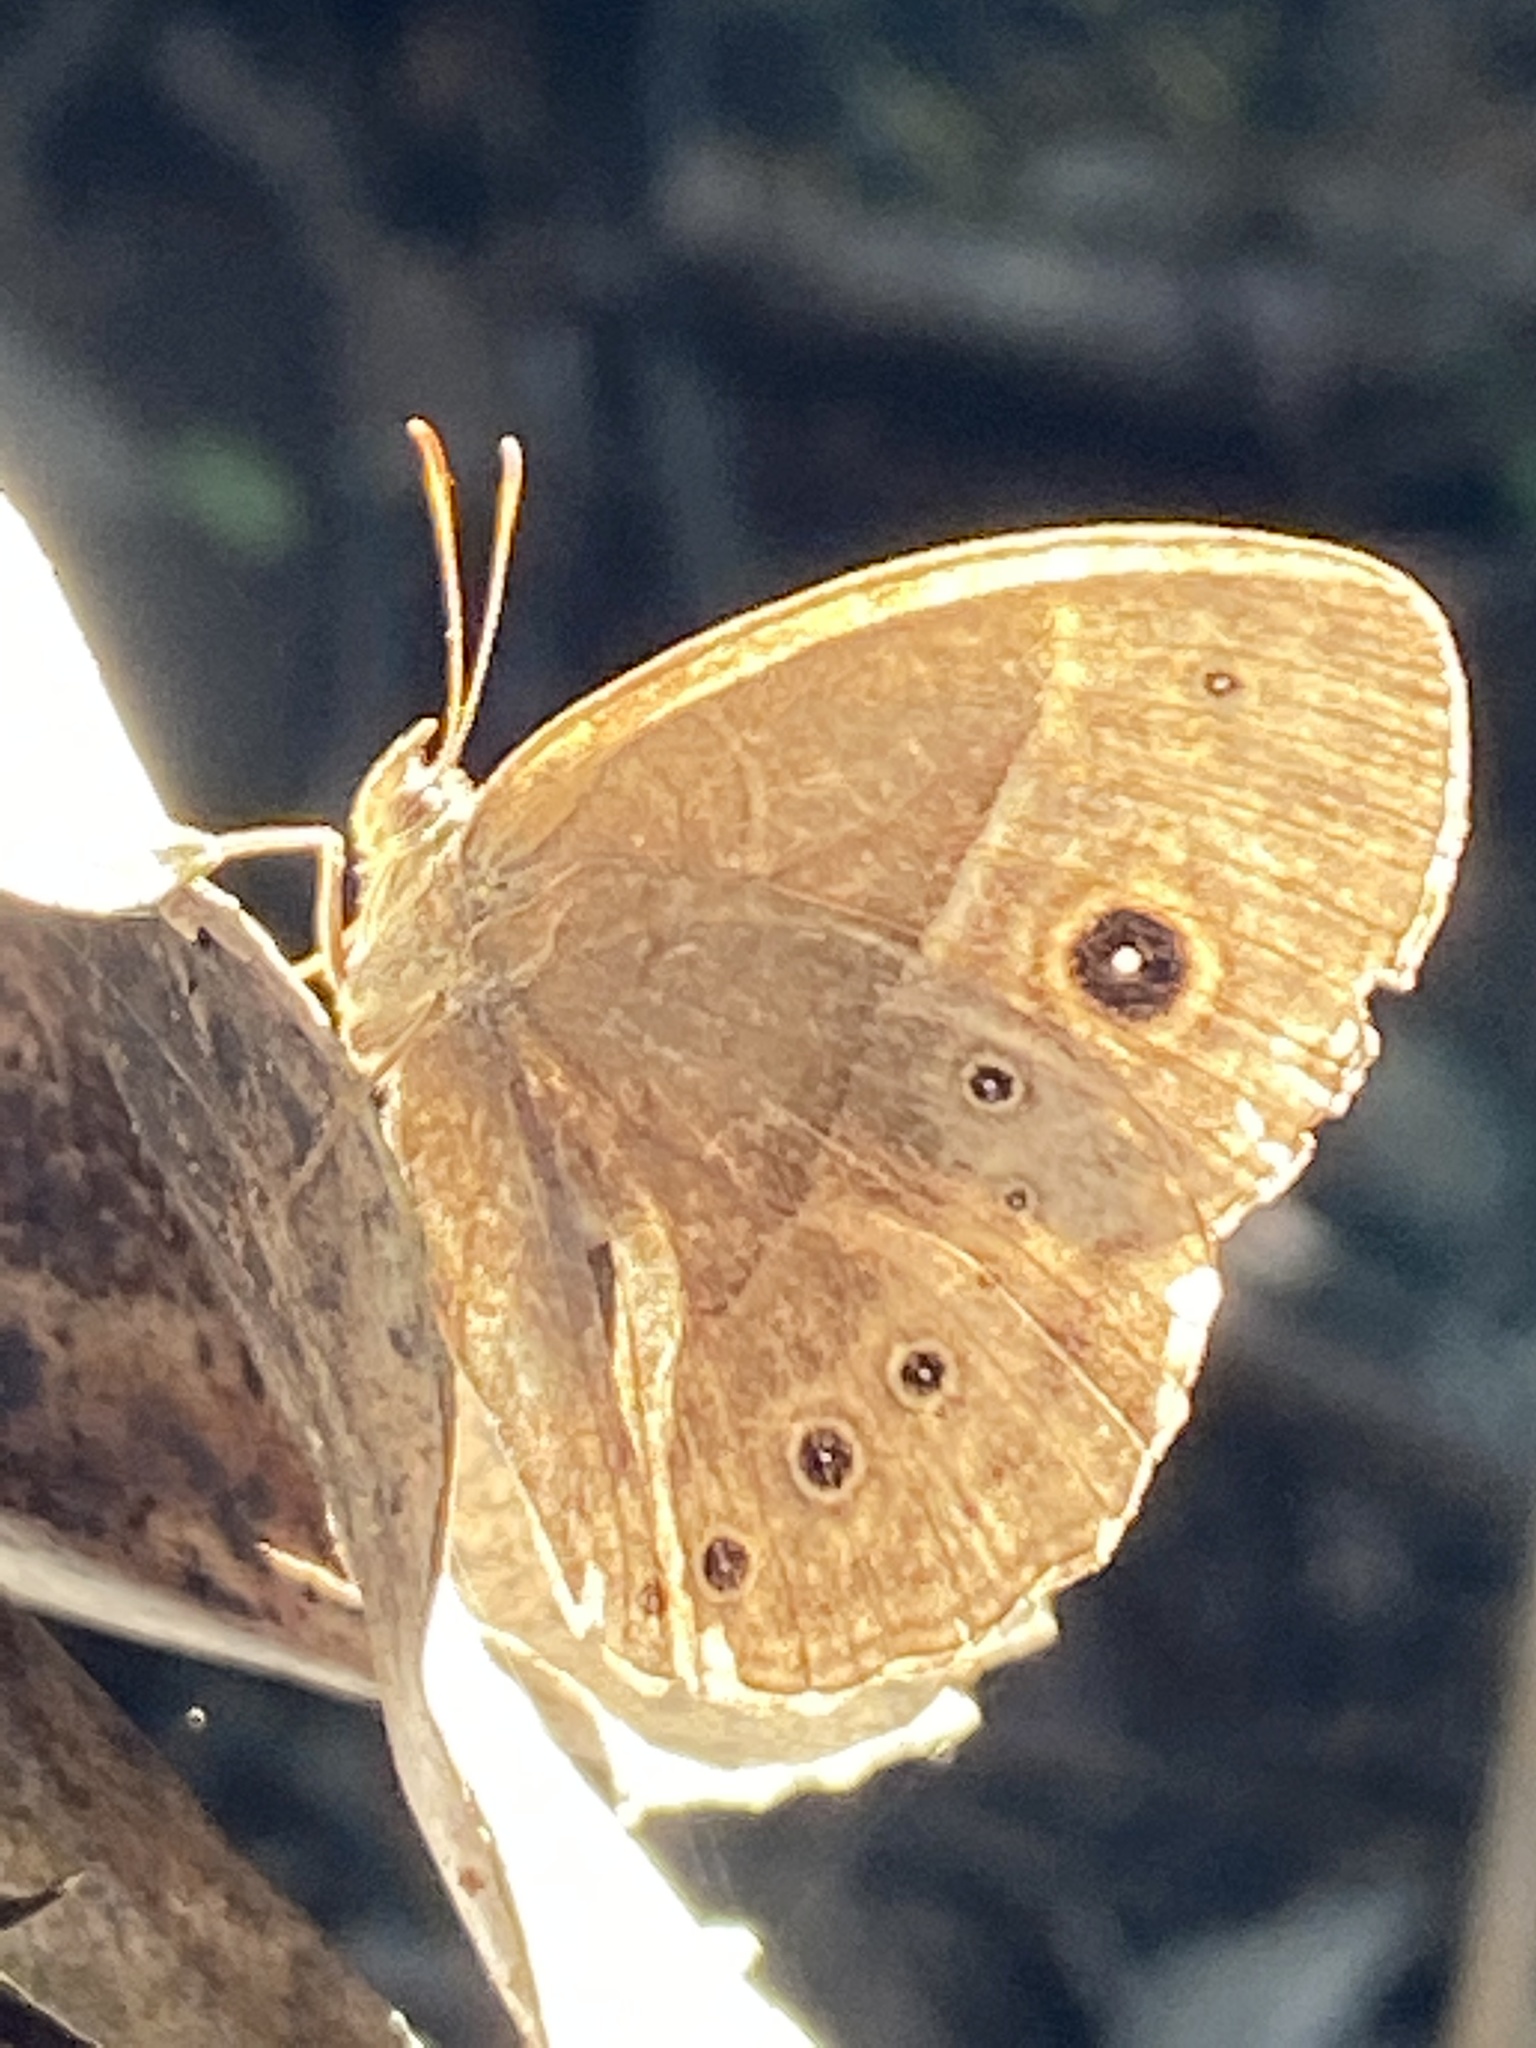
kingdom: Animalia
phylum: Arthropoda
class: Insecta
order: Lepidoptera
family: Nymphalidae
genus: Mycalesis
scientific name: Mycalesis rhacotis
